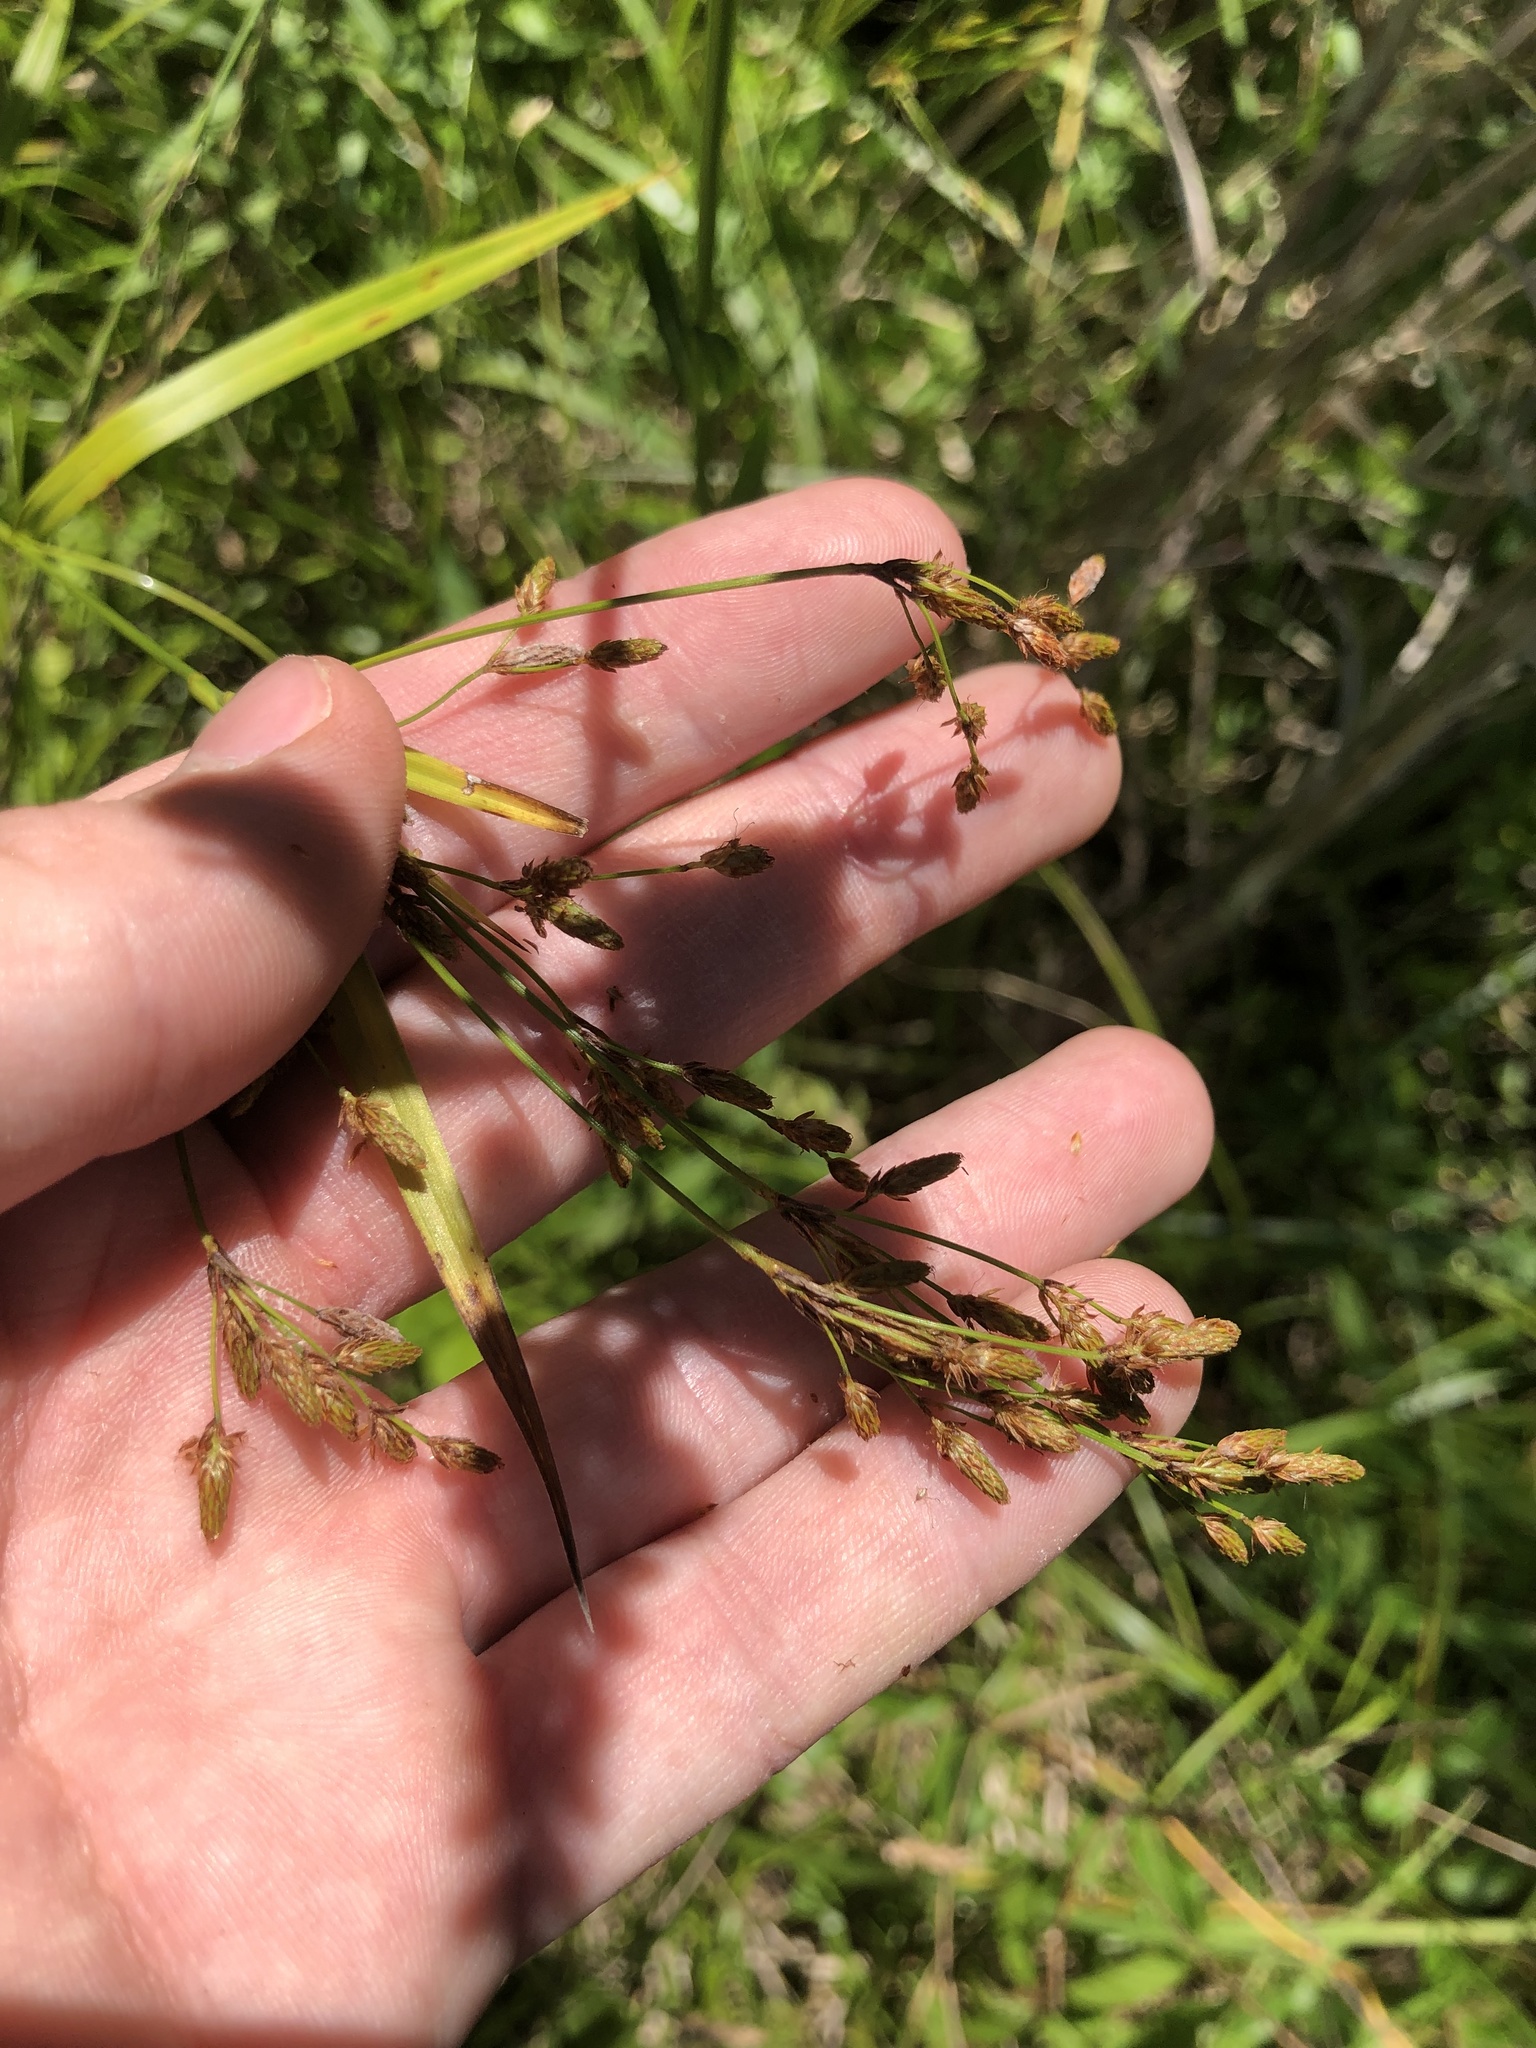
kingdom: Plantae
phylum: Tracheophyta
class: Liliopsida
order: Poales
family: Cyperaceae
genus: Scirpus
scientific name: Scirpus pendulus
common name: Nodding bulrush
